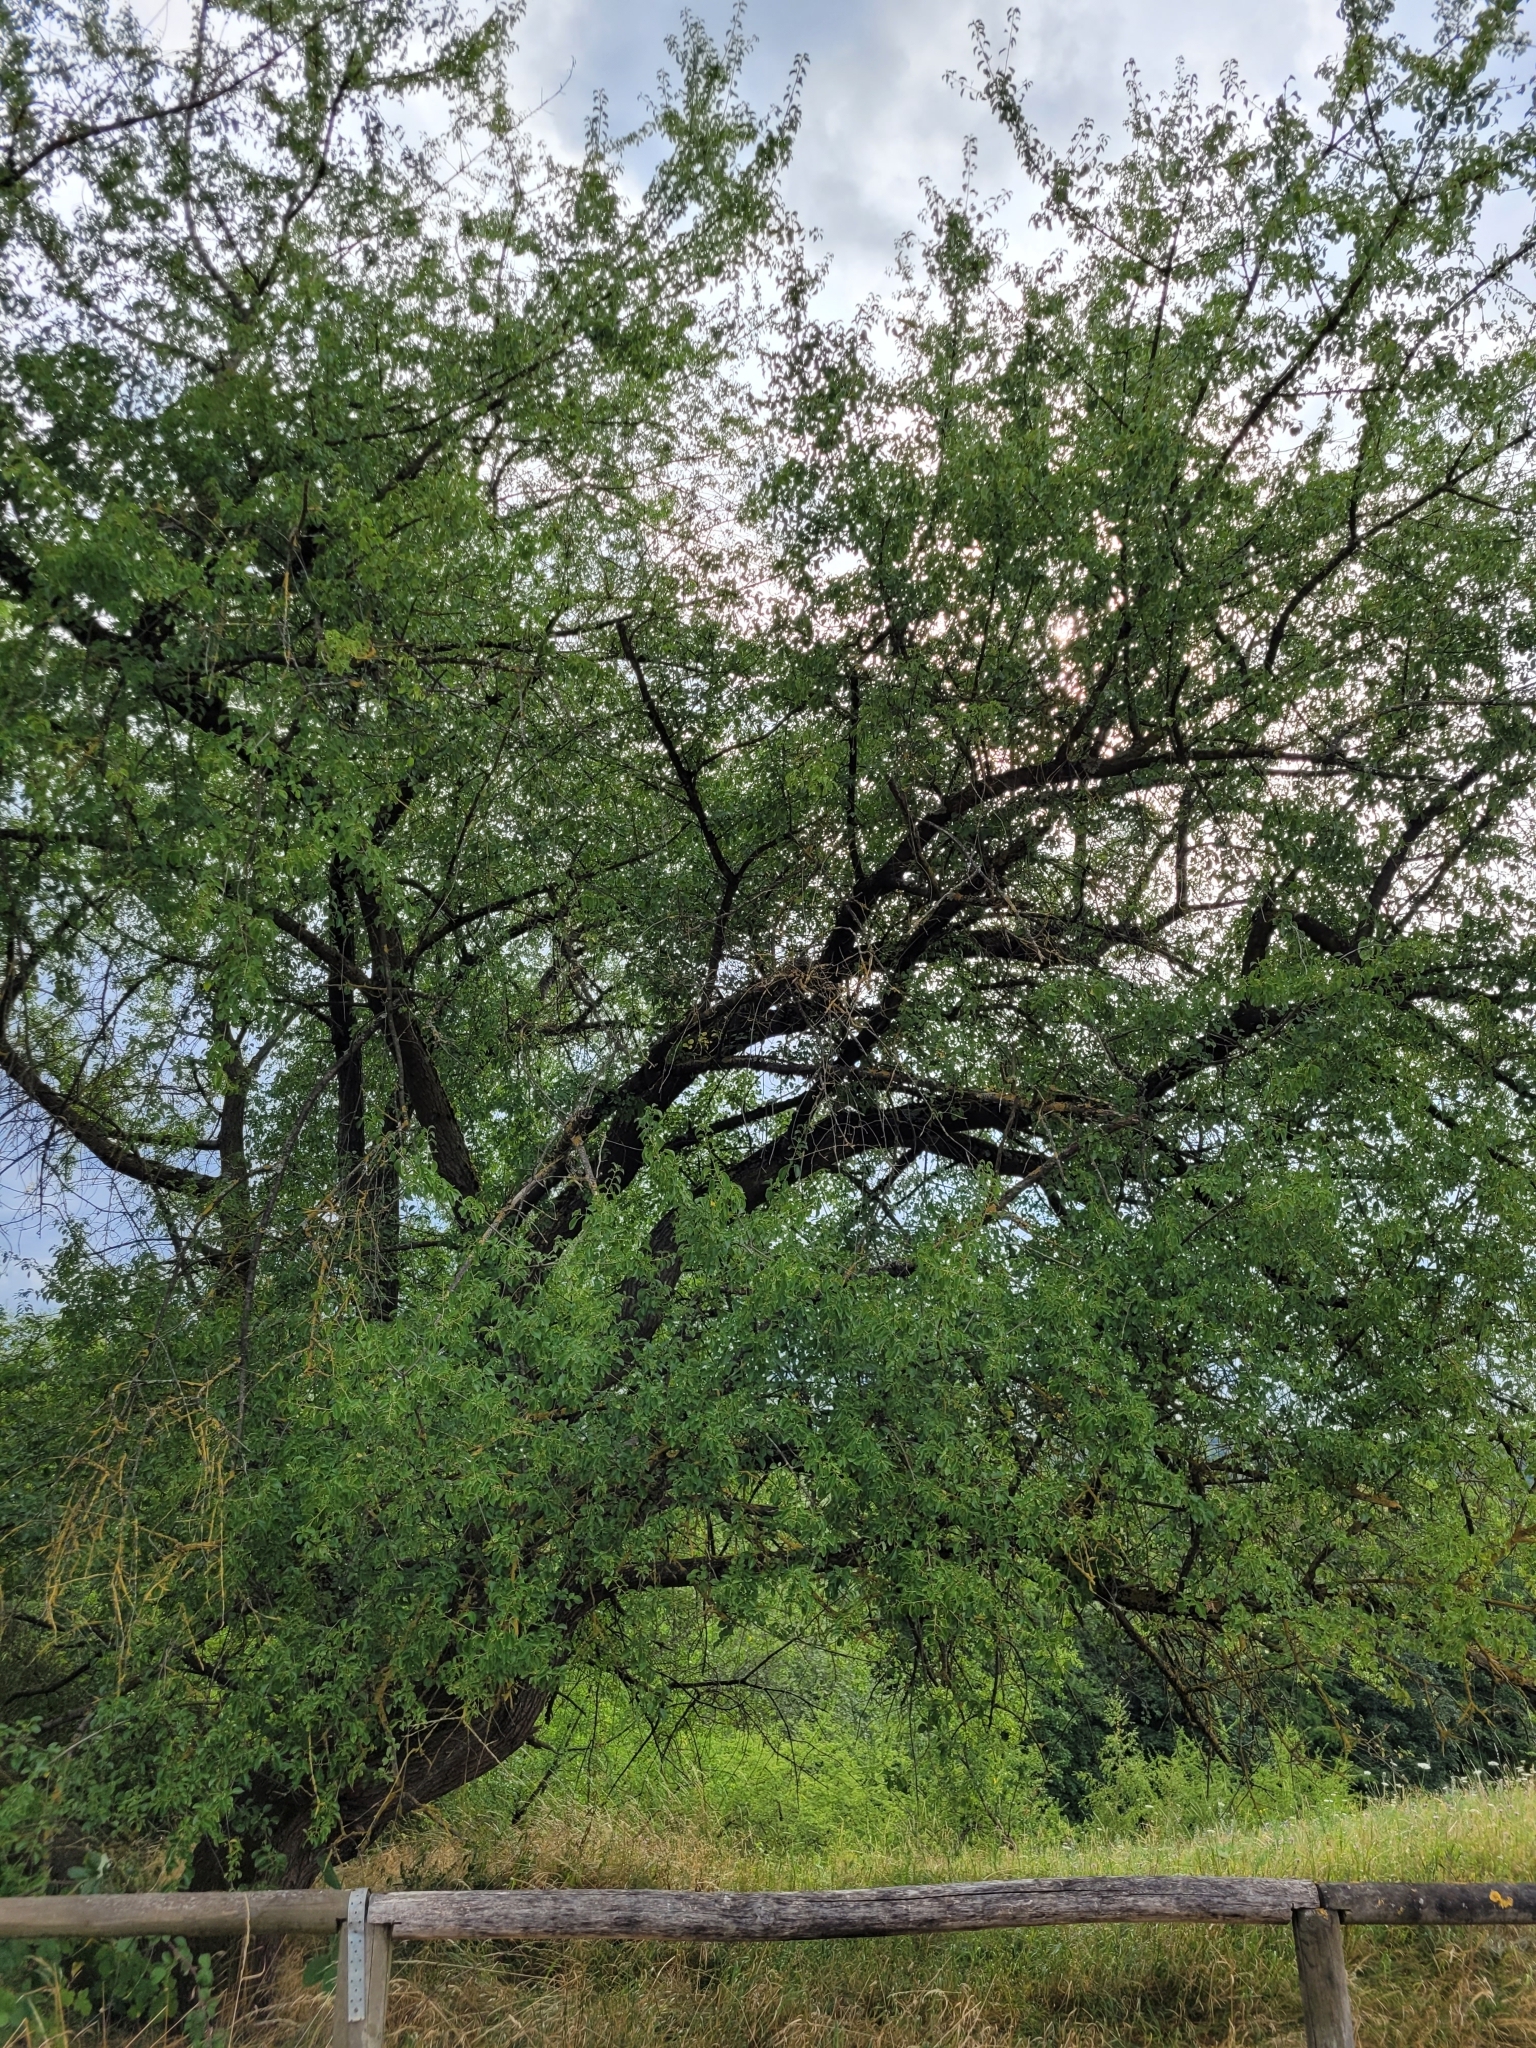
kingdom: Plantae
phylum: Tracheophyta
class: Magnoliopsida
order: Rosales
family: Rosaceae
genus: Prunus
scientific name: Prunus mahaleb
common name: Mahaleb cherry
